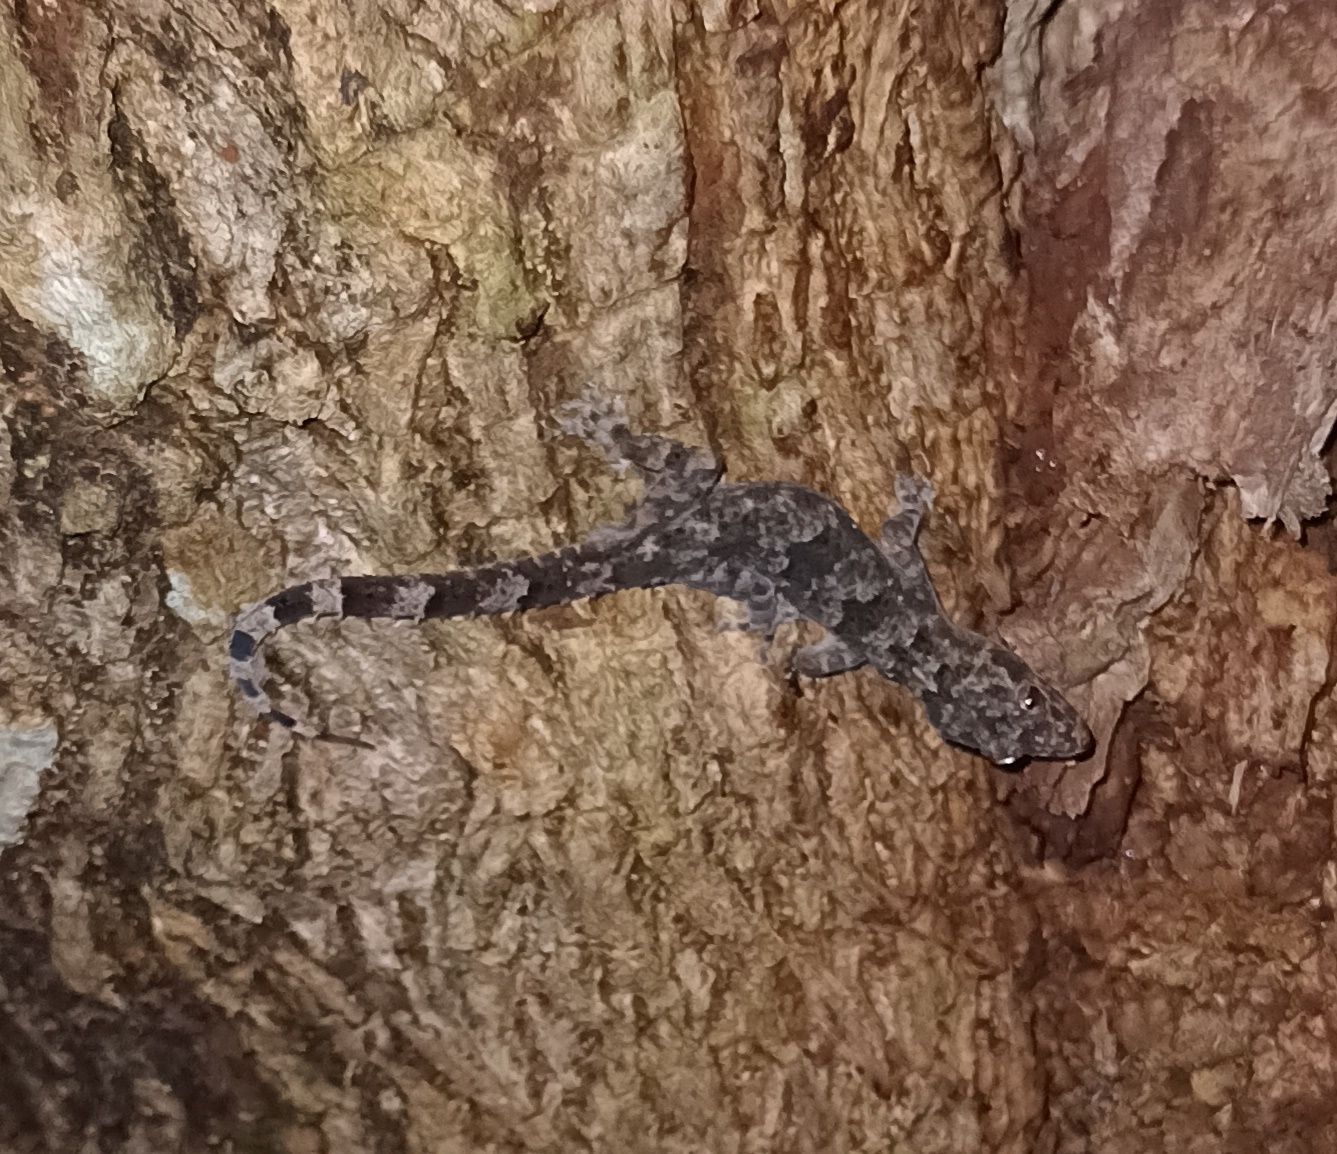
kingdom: Animalia
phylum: Chordata
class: Squamata
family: Gekkonidae
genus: Hemidactylus
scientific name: Hemidactylus mabouia
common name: House gecko
